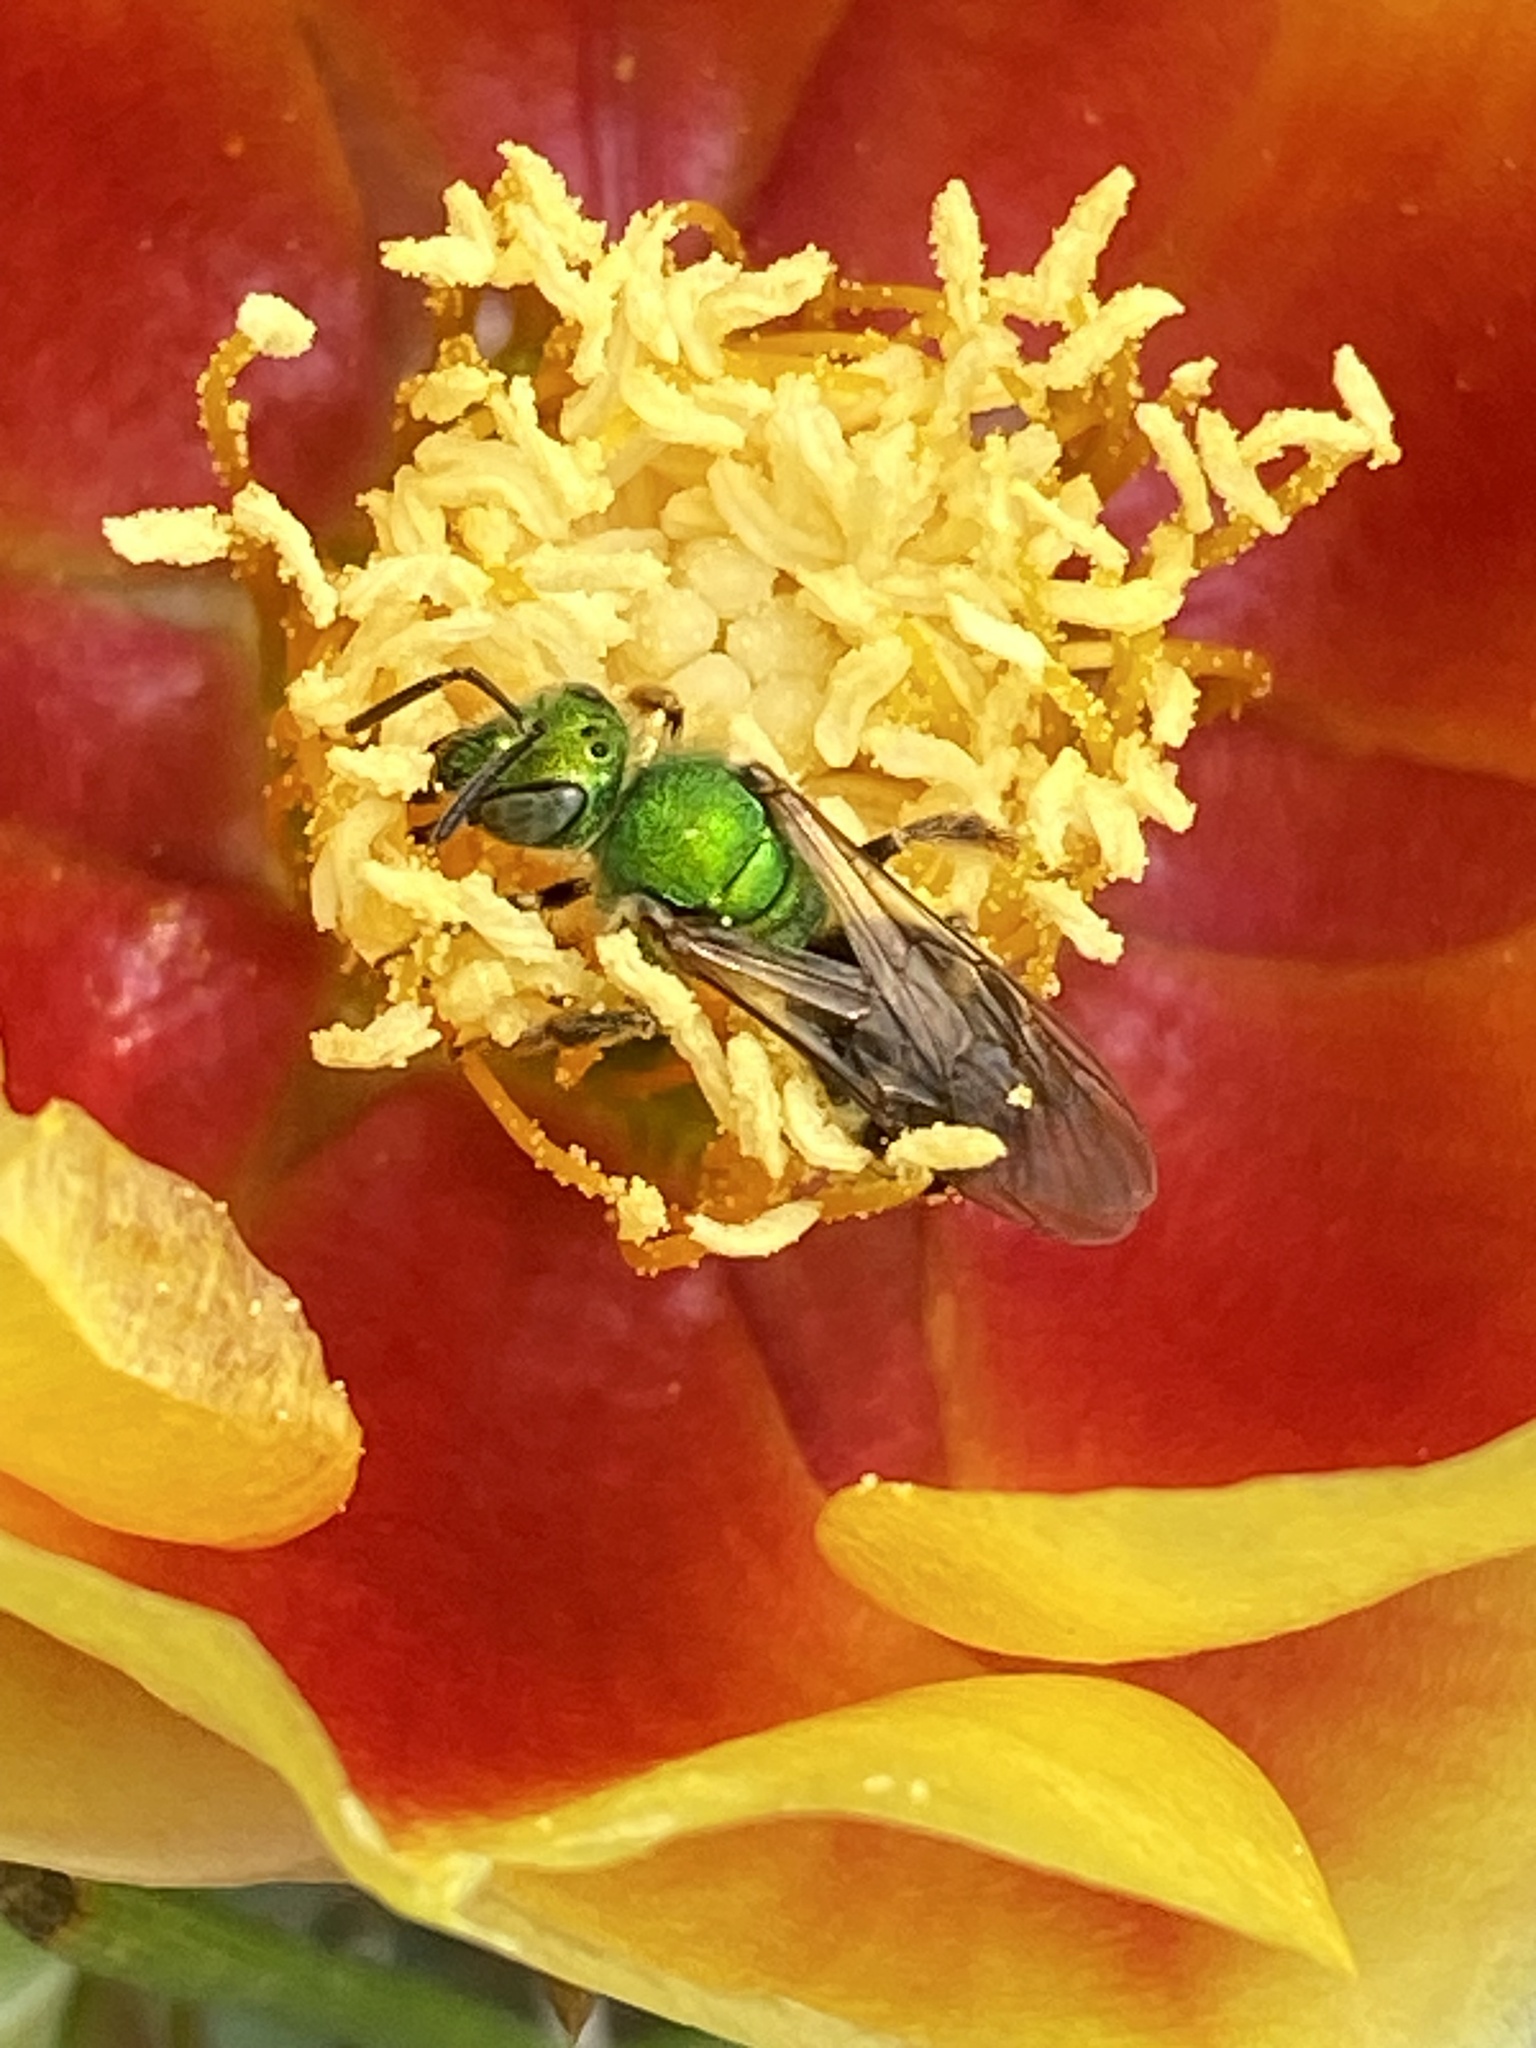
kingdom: Animalia
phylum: Arthropoda
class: Insecta
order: Hymenoptera
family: Halictidae
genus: Agapostemon
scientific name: Agapostemon virescens
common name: Bicolored striped sweat bee
